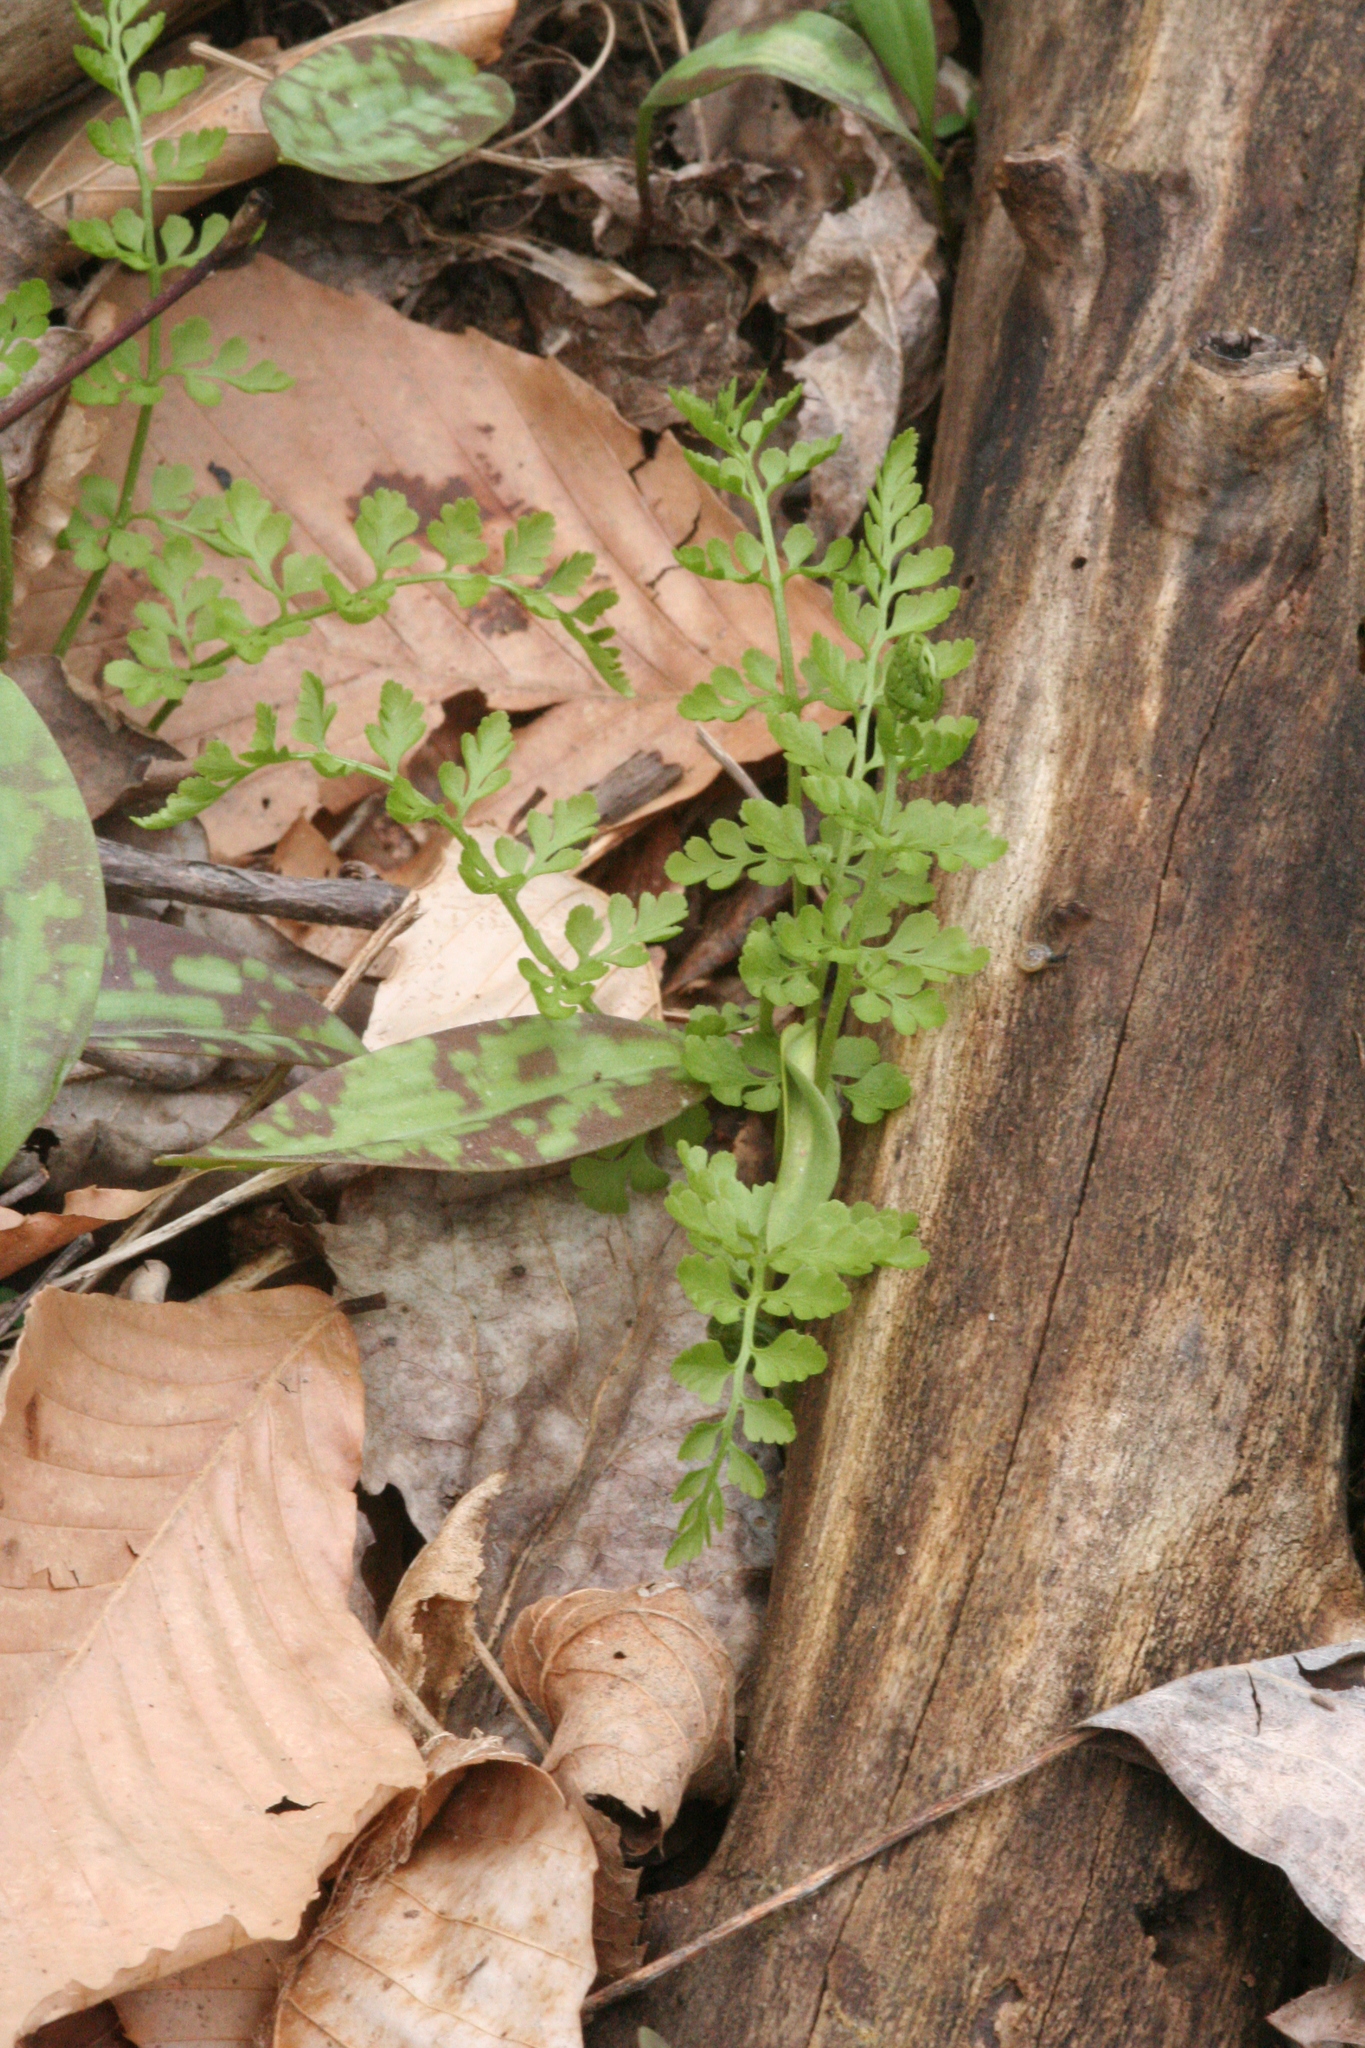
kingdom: Plantae
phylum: Tracheophyta
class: Polypodiopsida
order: Polypodiales
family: Cystopteridaceae
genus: Cystopteris
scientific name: Cystopteris protrusa
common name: Lowland brittle fern
